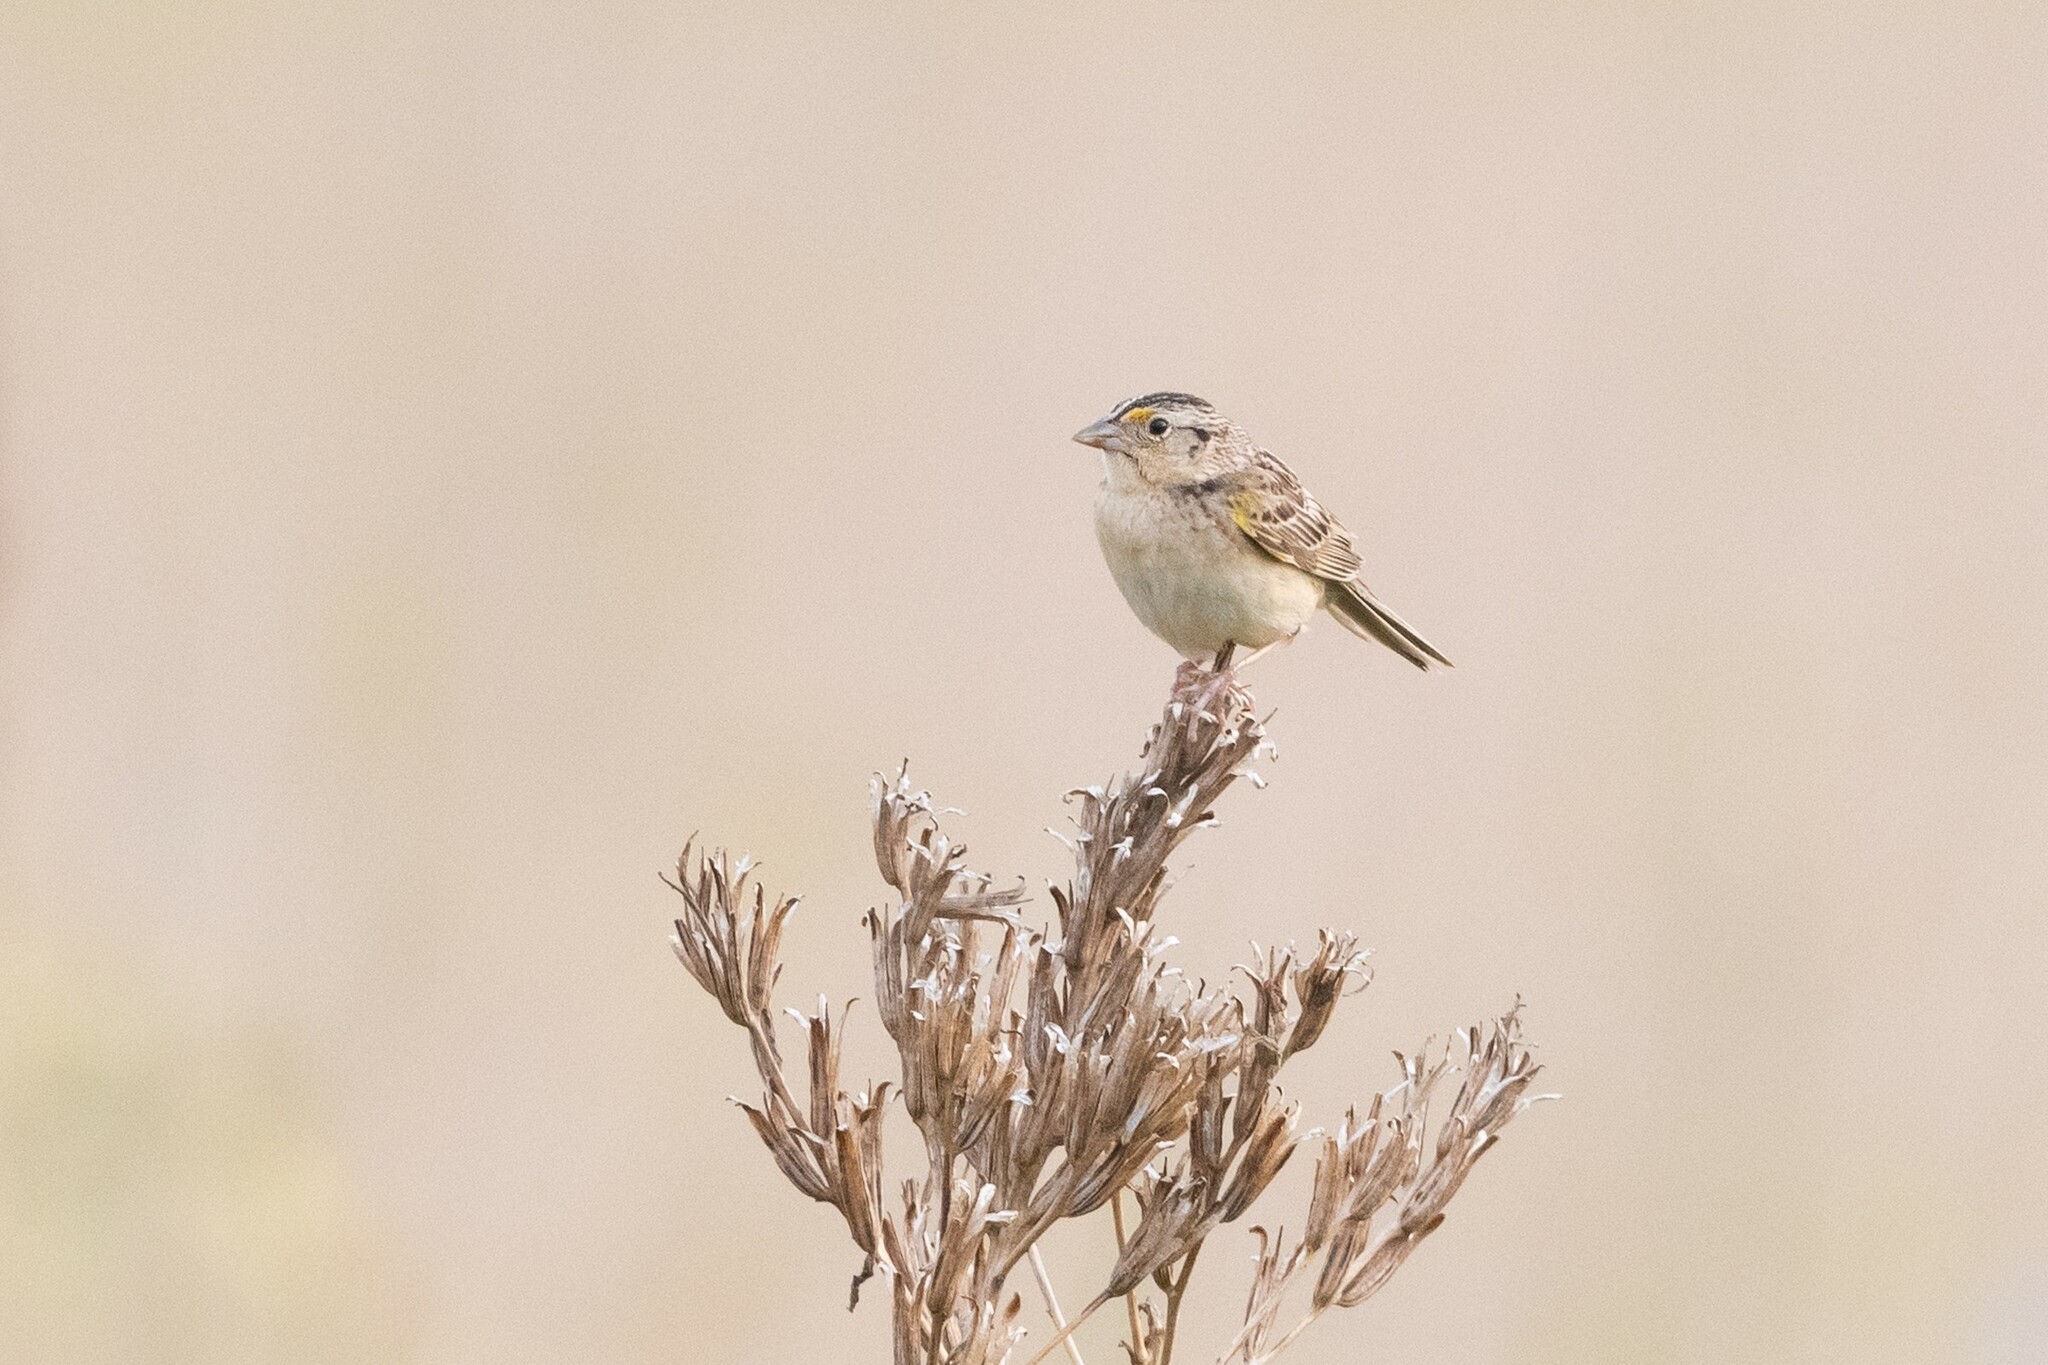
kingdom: Animalia
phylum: Chordata
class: Aves
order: Passeriformes
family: Passerellidae
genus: Ammodramus
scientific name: Ammodramus savannarum
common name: Grasshopper sparrow
